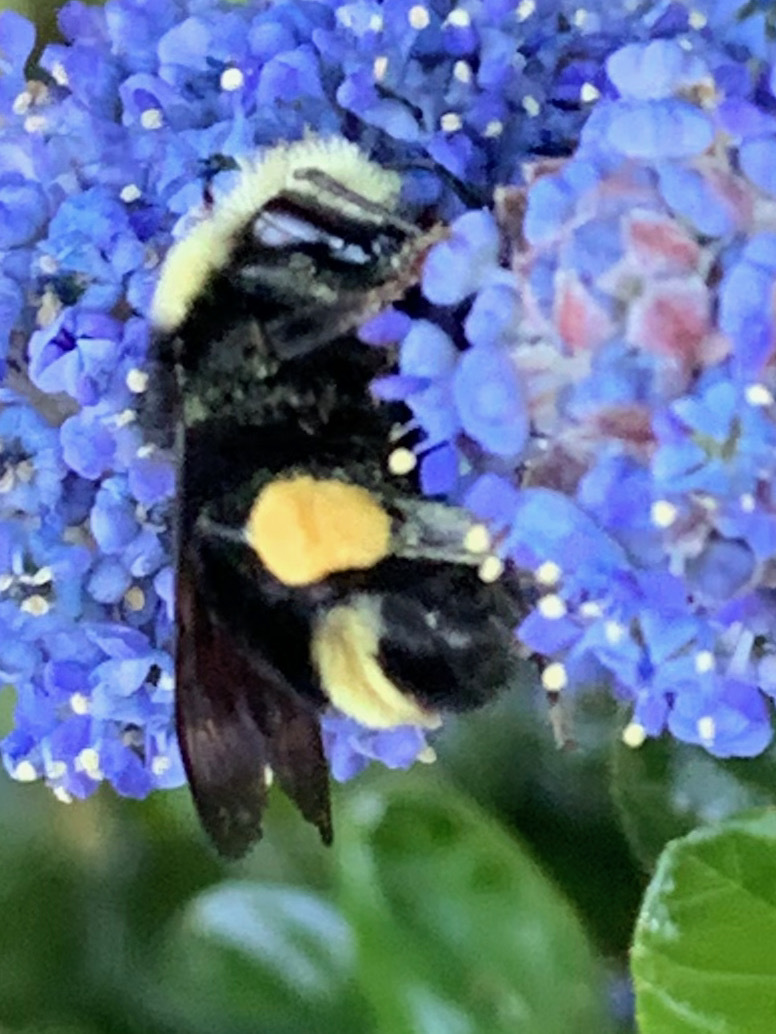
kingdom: Animalia
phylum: Arthropoda
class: Insecta
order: Hymenoptera
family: Apidae
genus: Bombus
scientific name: Bombus vosnesenskii
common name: Vosnesensky bumble bee
